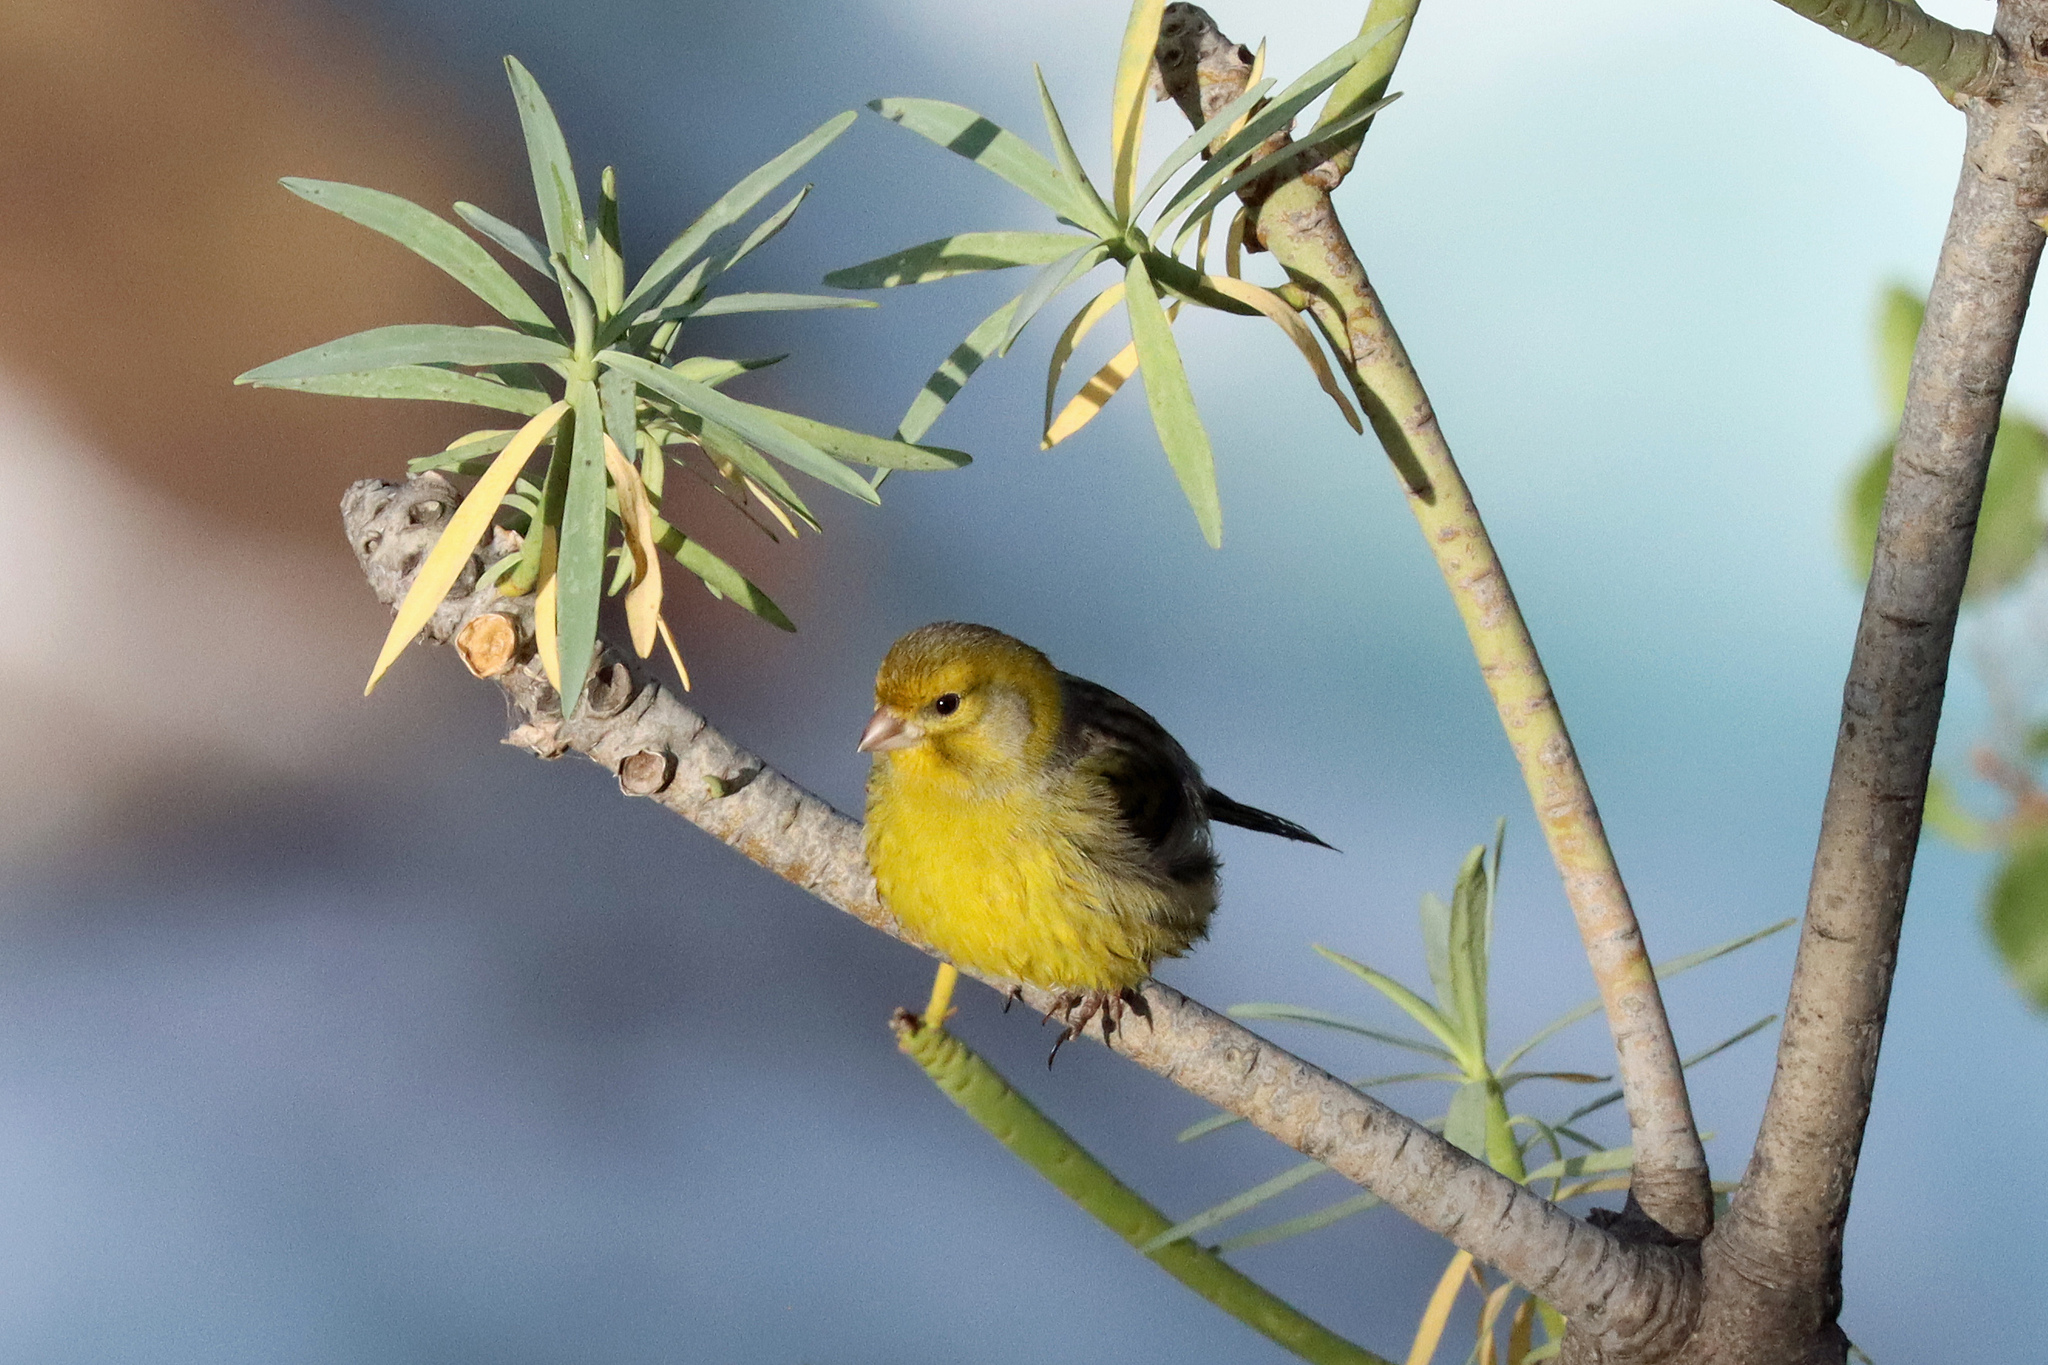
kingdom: Animalia
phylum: Chordata
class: Aves
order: Passeriformes
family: Fringillidae
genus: Serinus
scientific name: Serinus canaria
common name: Atlantic canary
